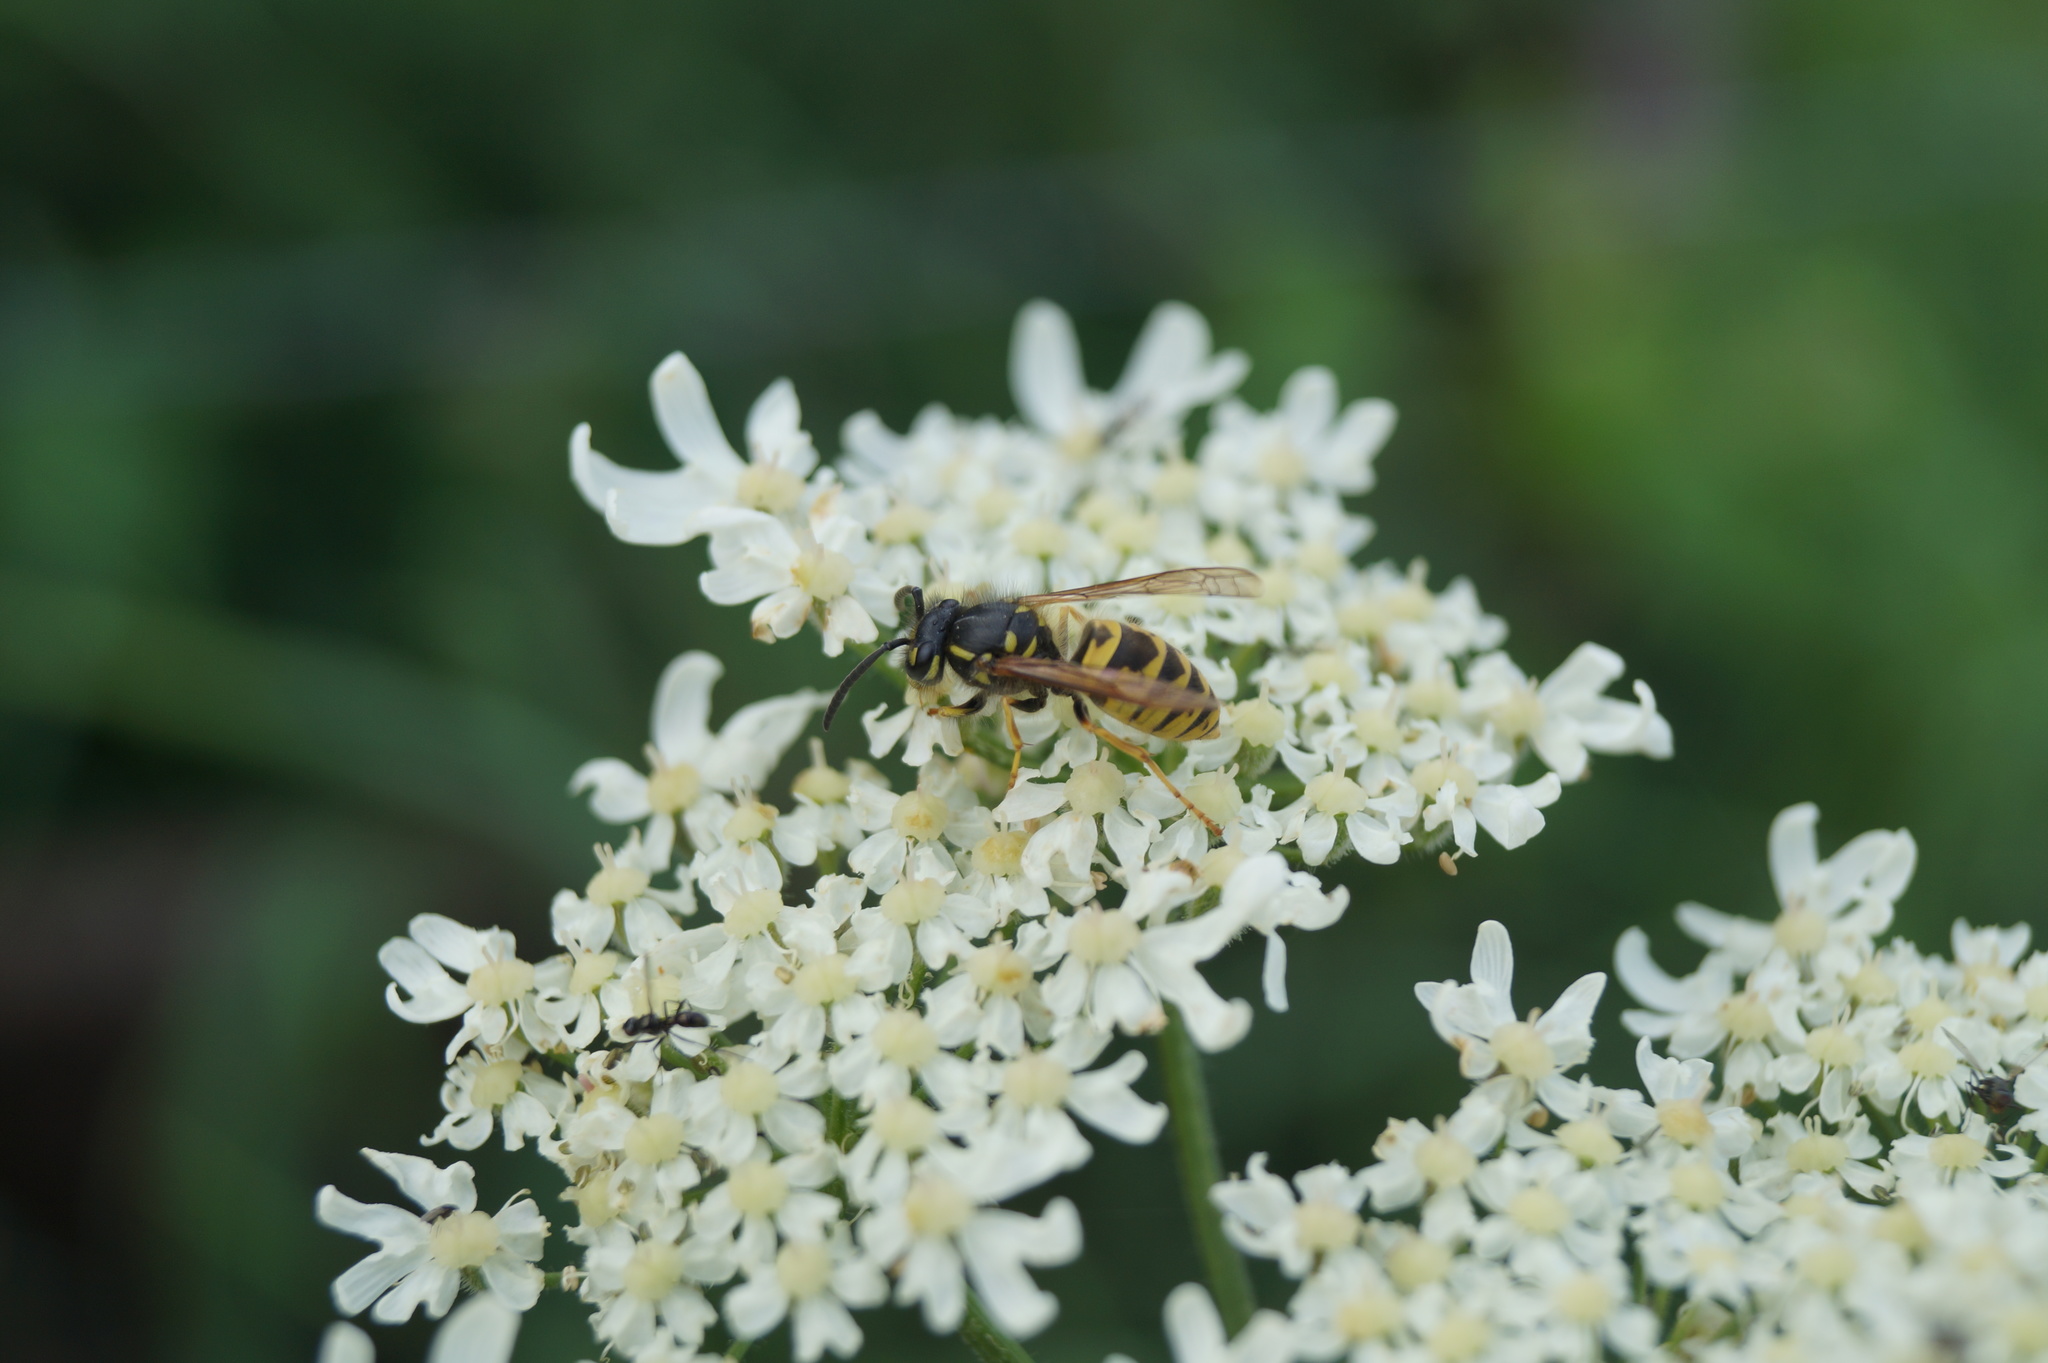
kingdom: Animalia
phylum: Arthropoda
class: Insecta
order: Hymenoptera
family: Vespidae
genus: Vespula
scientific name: Vespula vulgaris
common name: Common wasp
